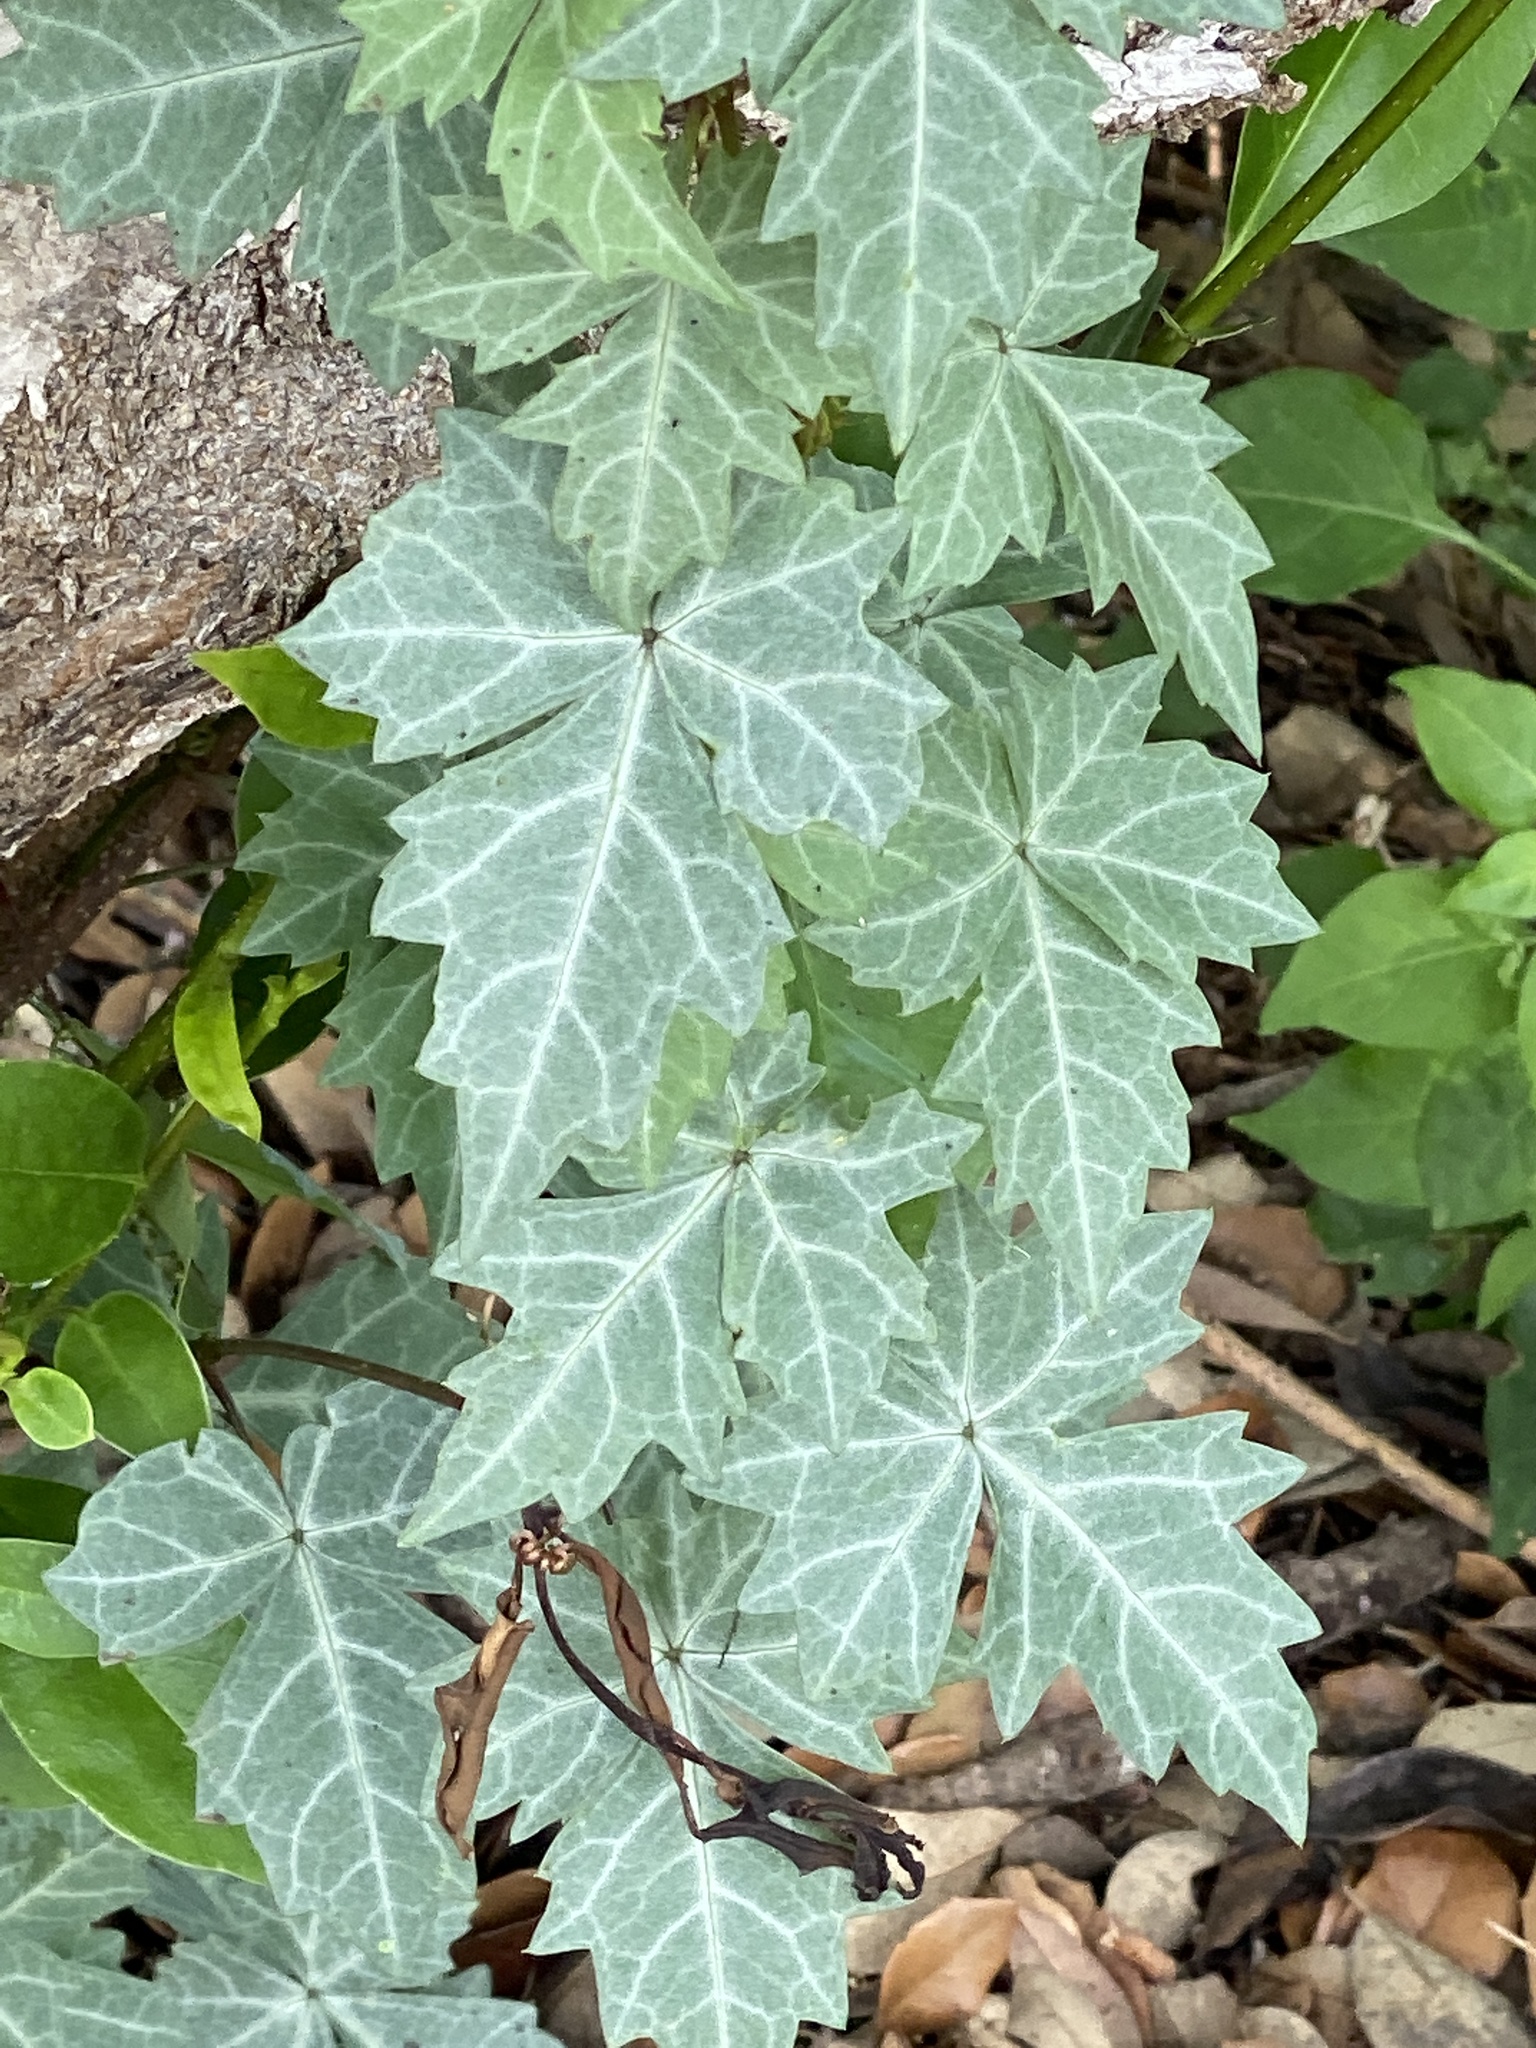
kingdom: Plantae
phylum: Tracheophyta
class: Magnoliopsida
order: Vitales
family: Vitaceae
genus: Cissus
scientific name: Cissus trifoliata
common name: Vine-sorrel
